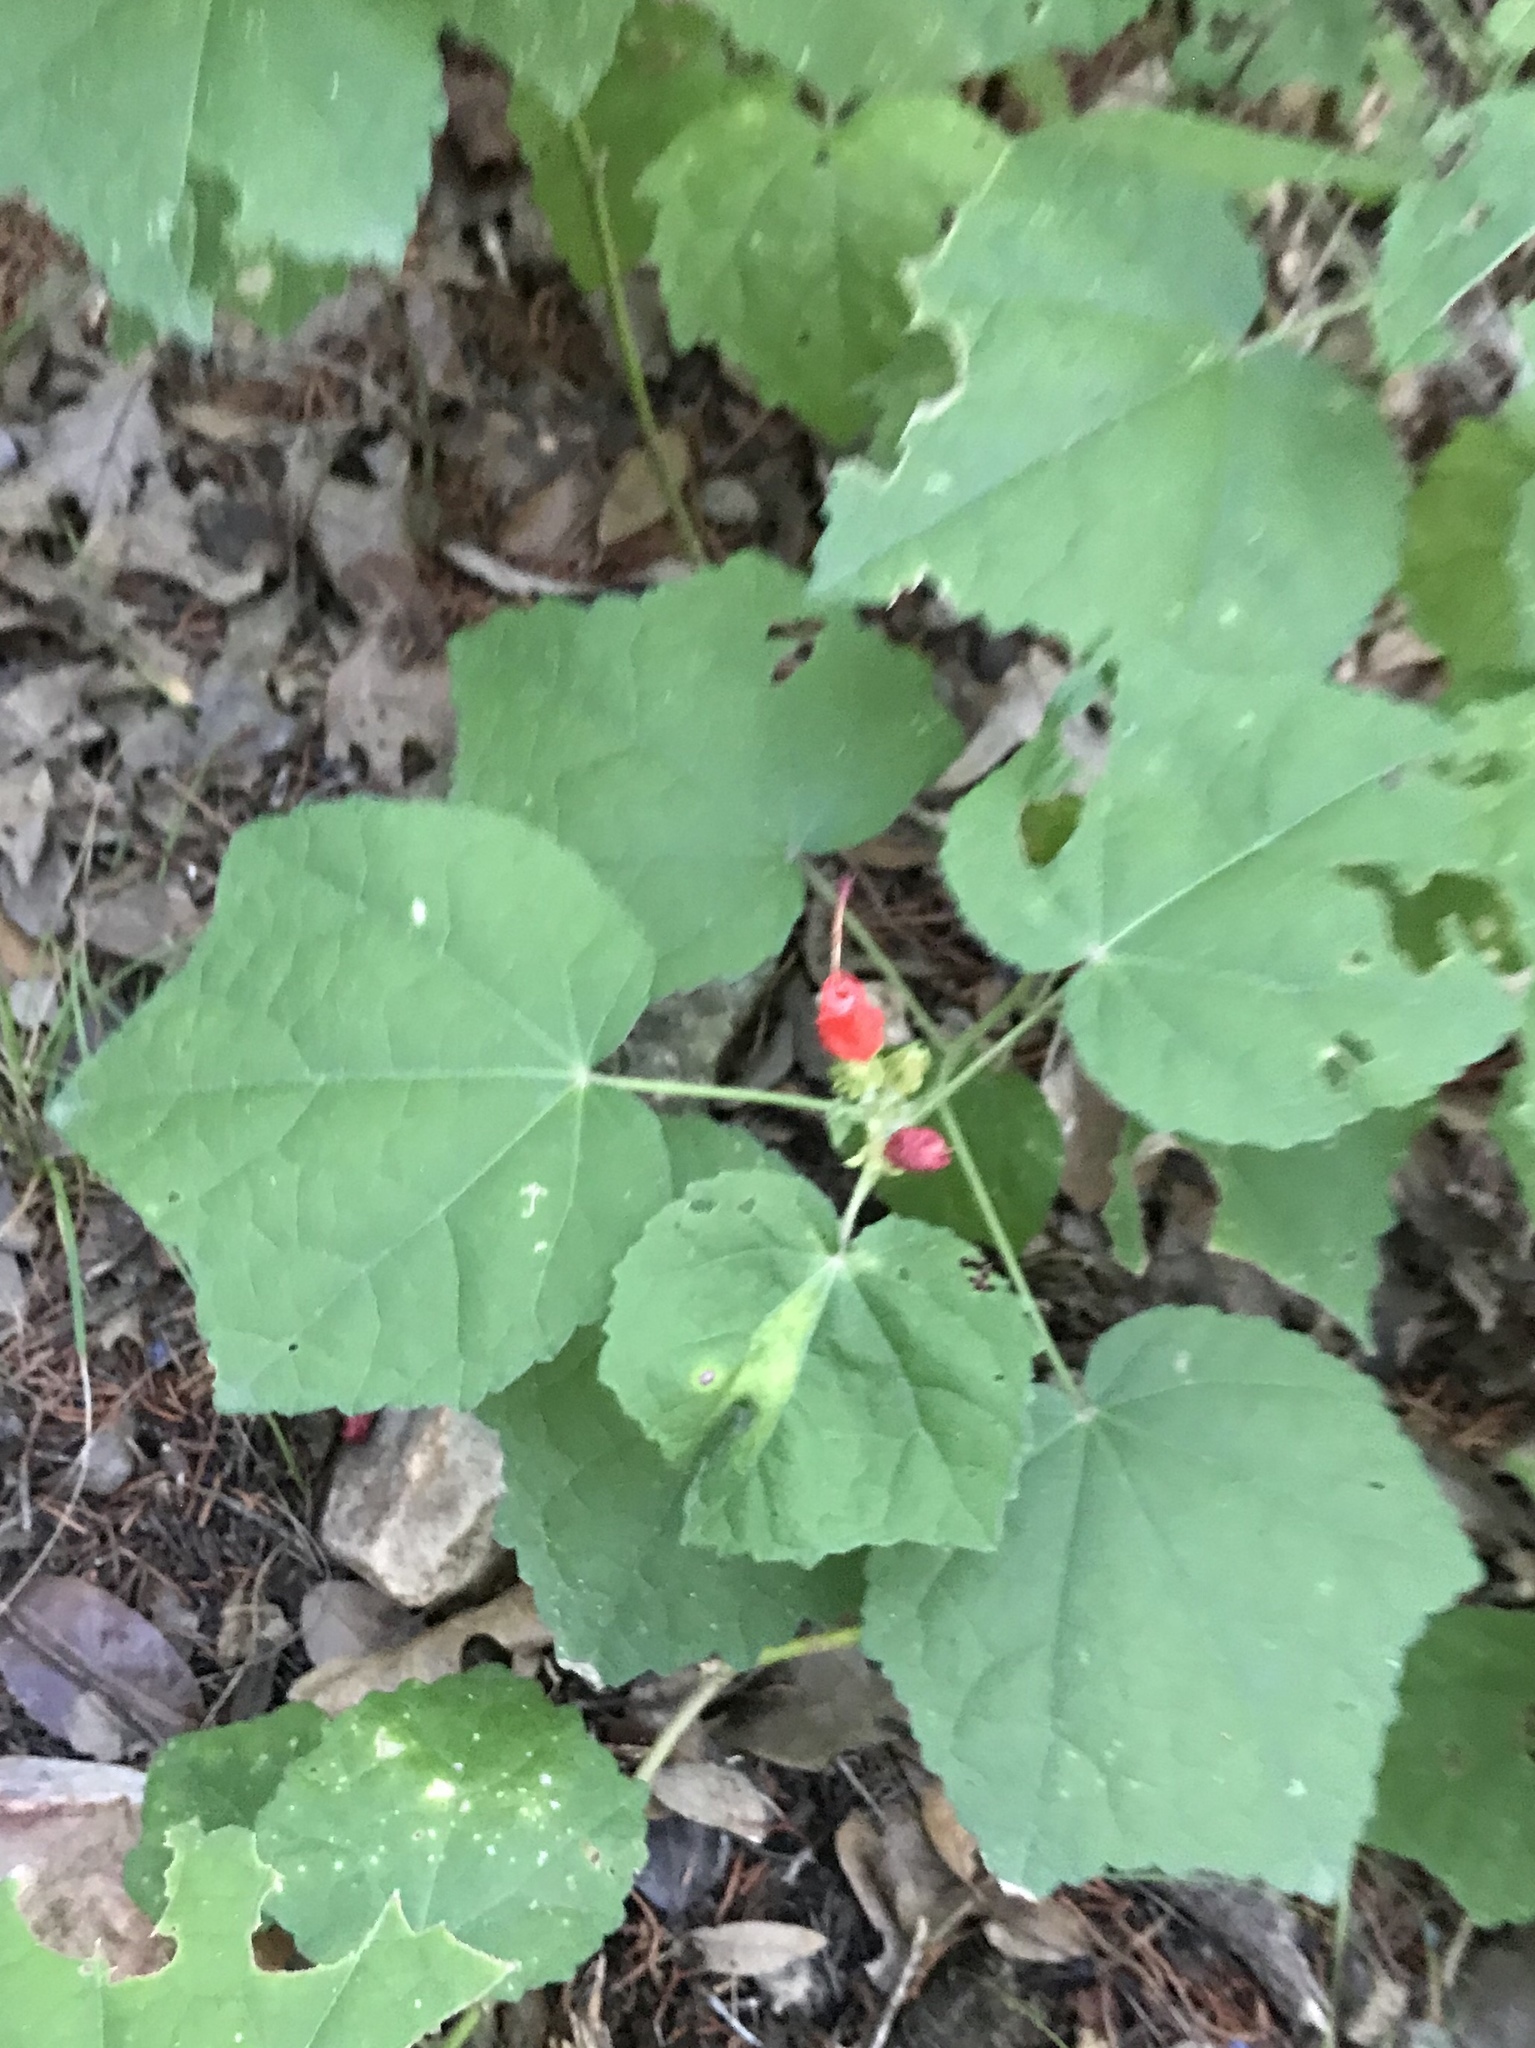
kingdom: Plantae
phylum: Tracheophyta
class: Magnoliopsida
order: Malvales
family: Malvaceae
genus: Malvaviscus
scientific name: Malvaviscus arboreus
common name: Wax mallow
